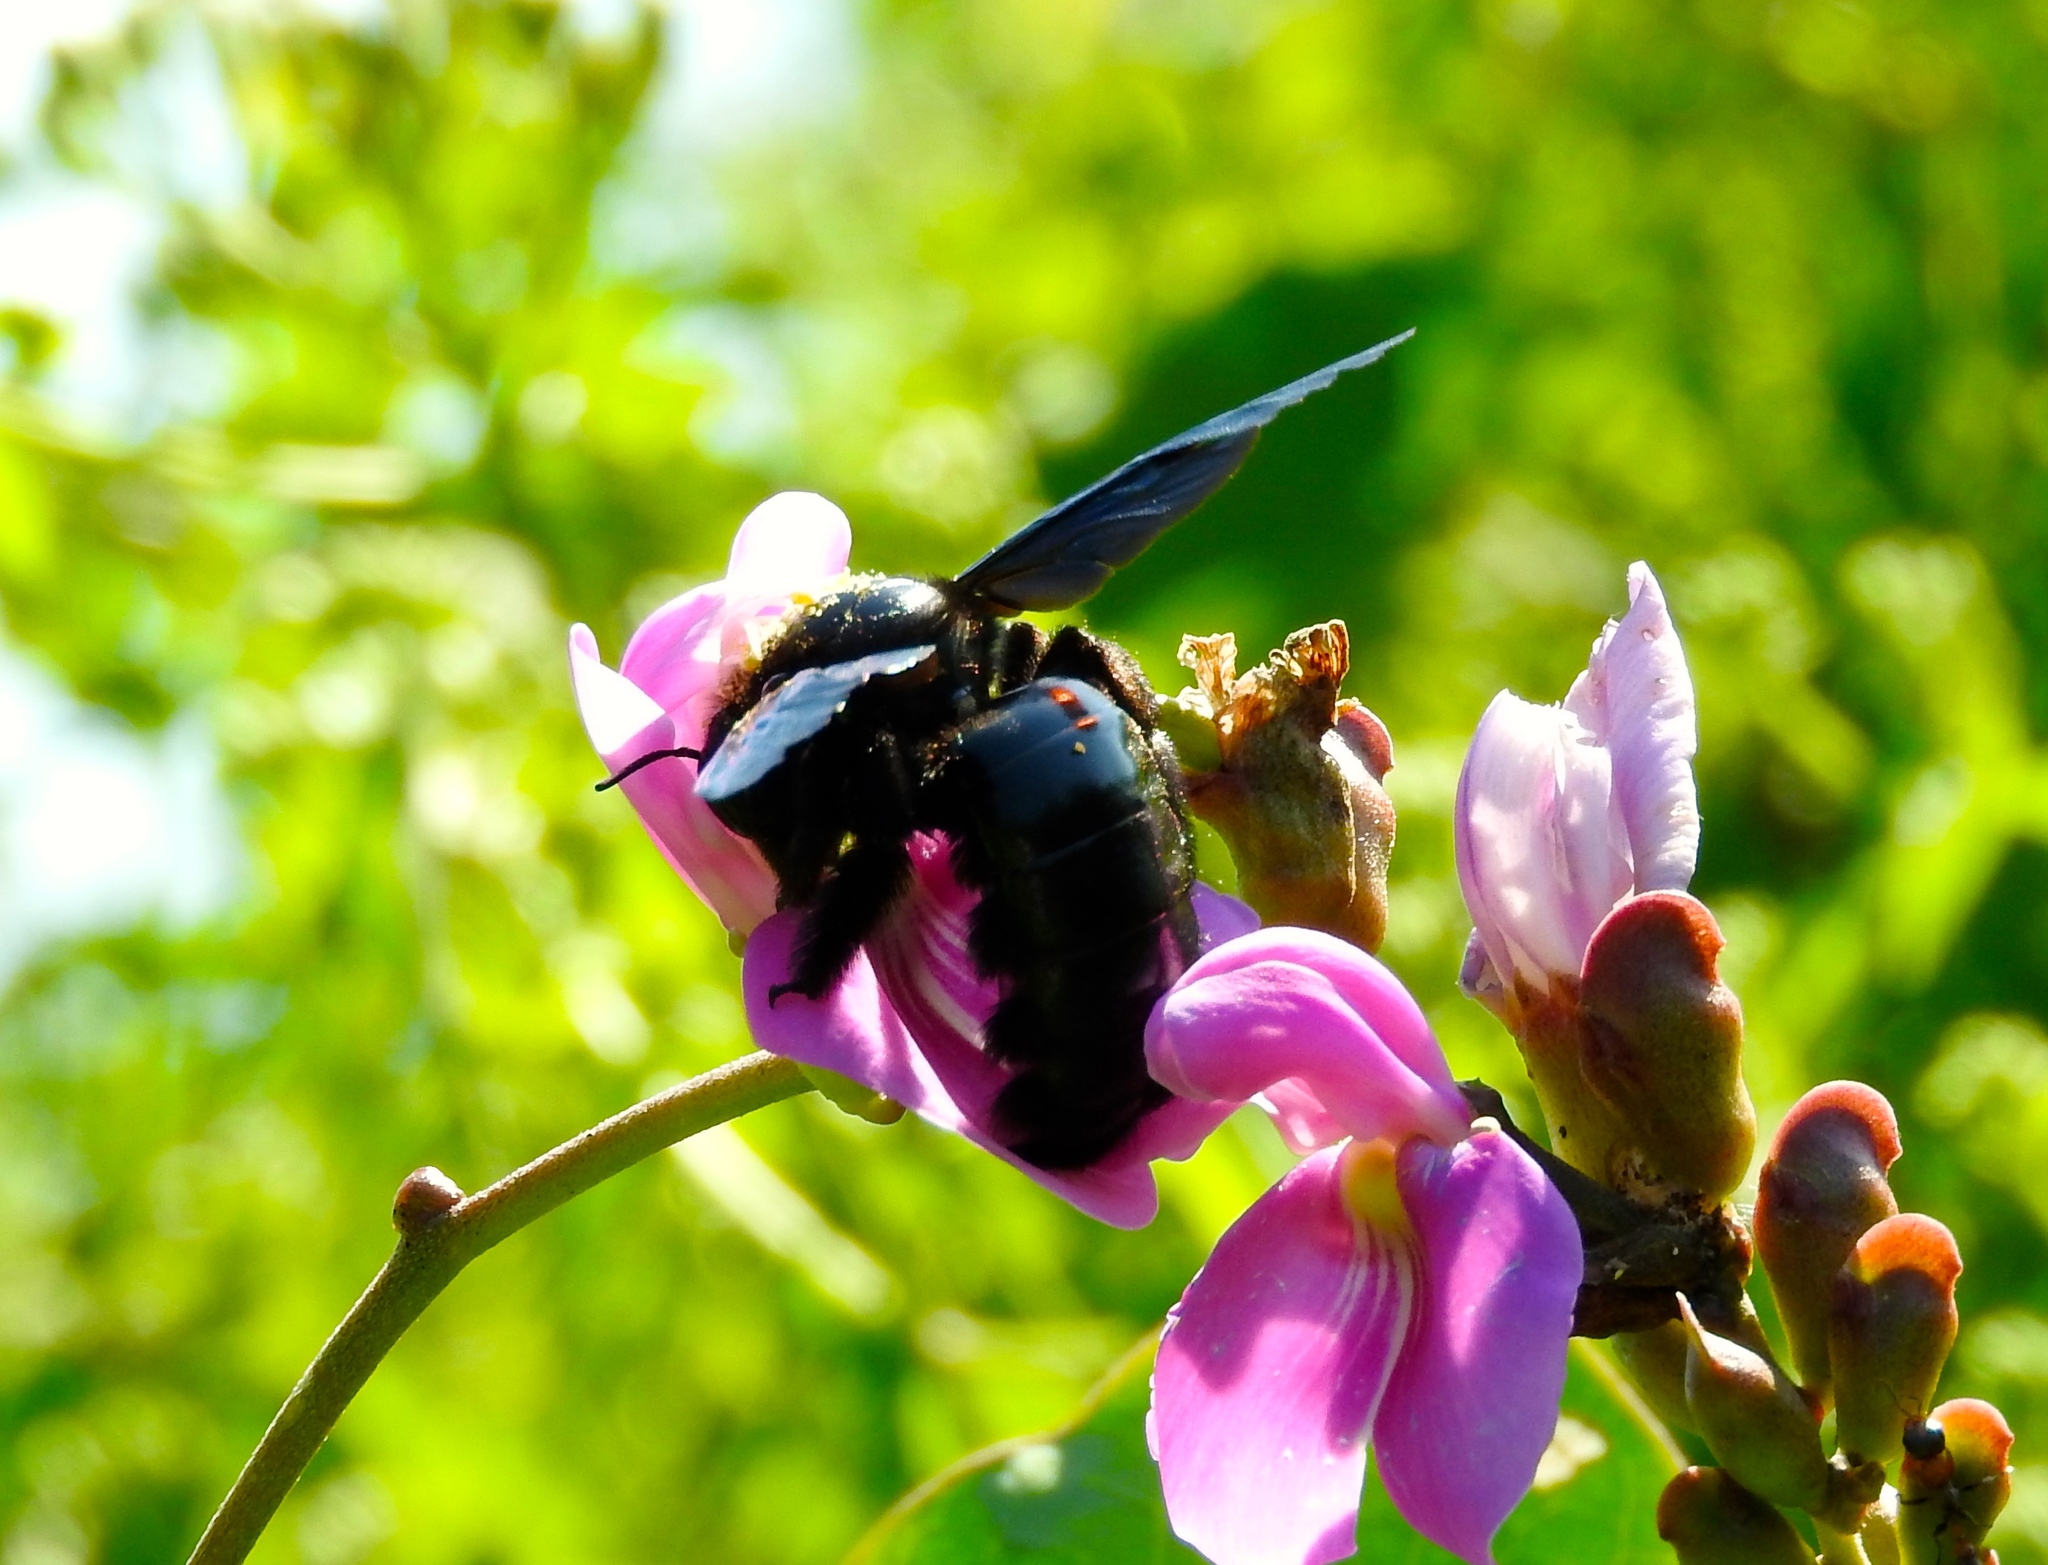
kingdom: Animalia
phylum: Arthropoda
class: Insecta
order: Hymenoptera
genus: Neoxylocopa
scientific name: Neoxylocopa
